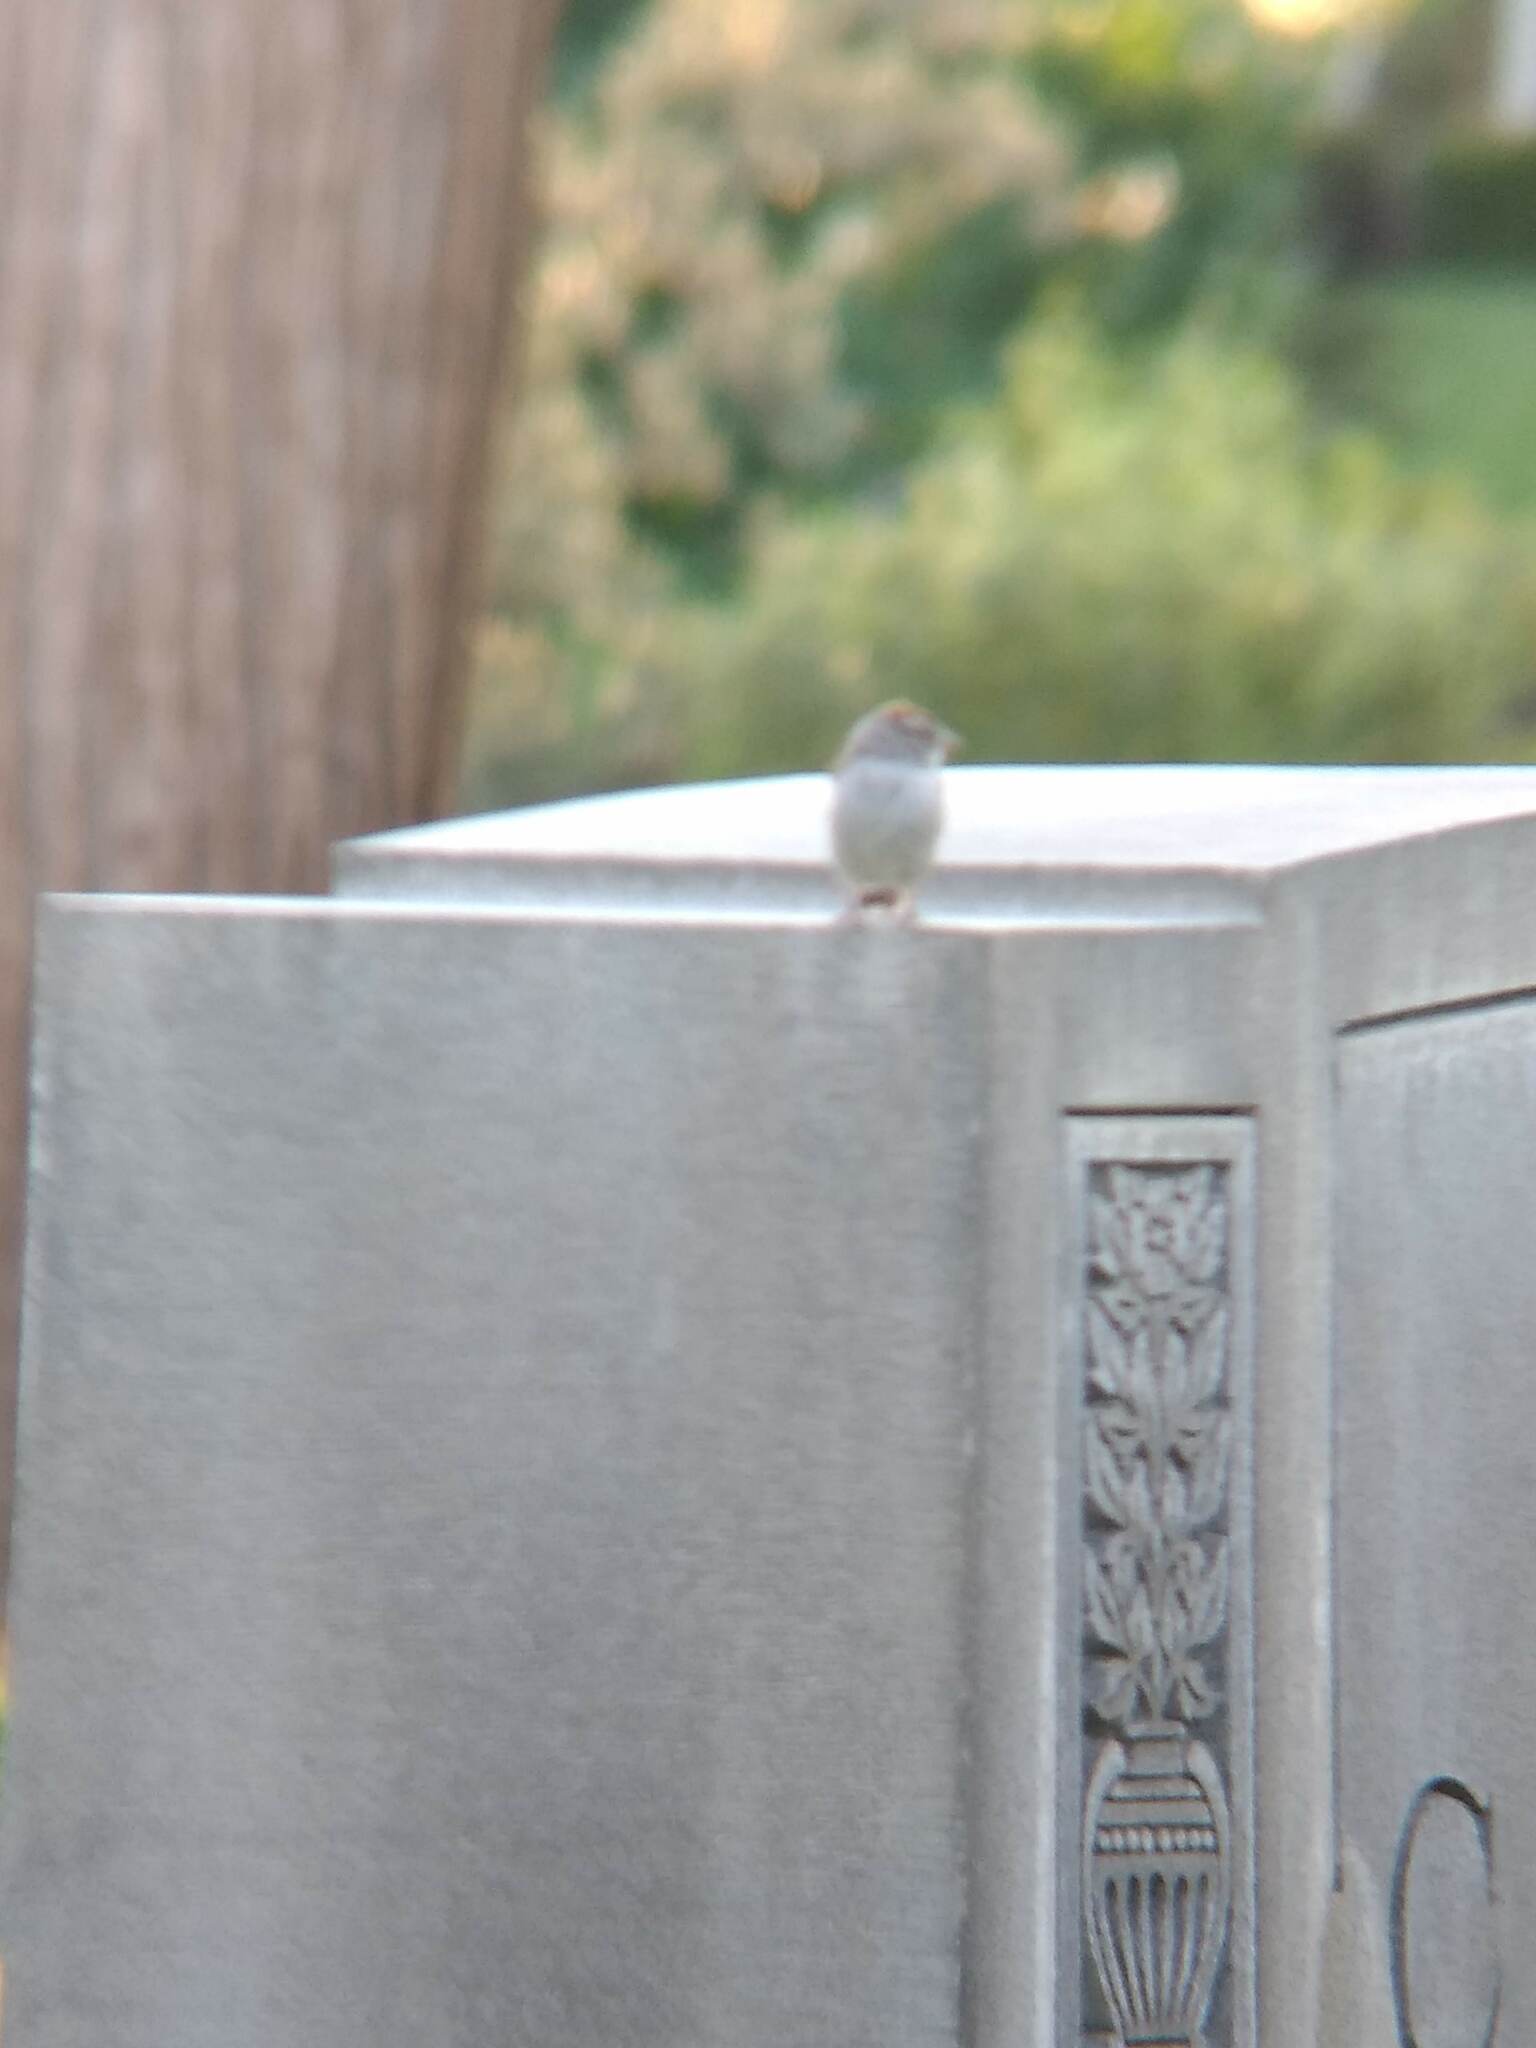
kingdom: Animalia
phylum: Chordata
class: Aves
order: Passeriformes
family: Passerellidae
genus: Spizella
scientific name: Spizella passerina
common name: Chipping sparrow
